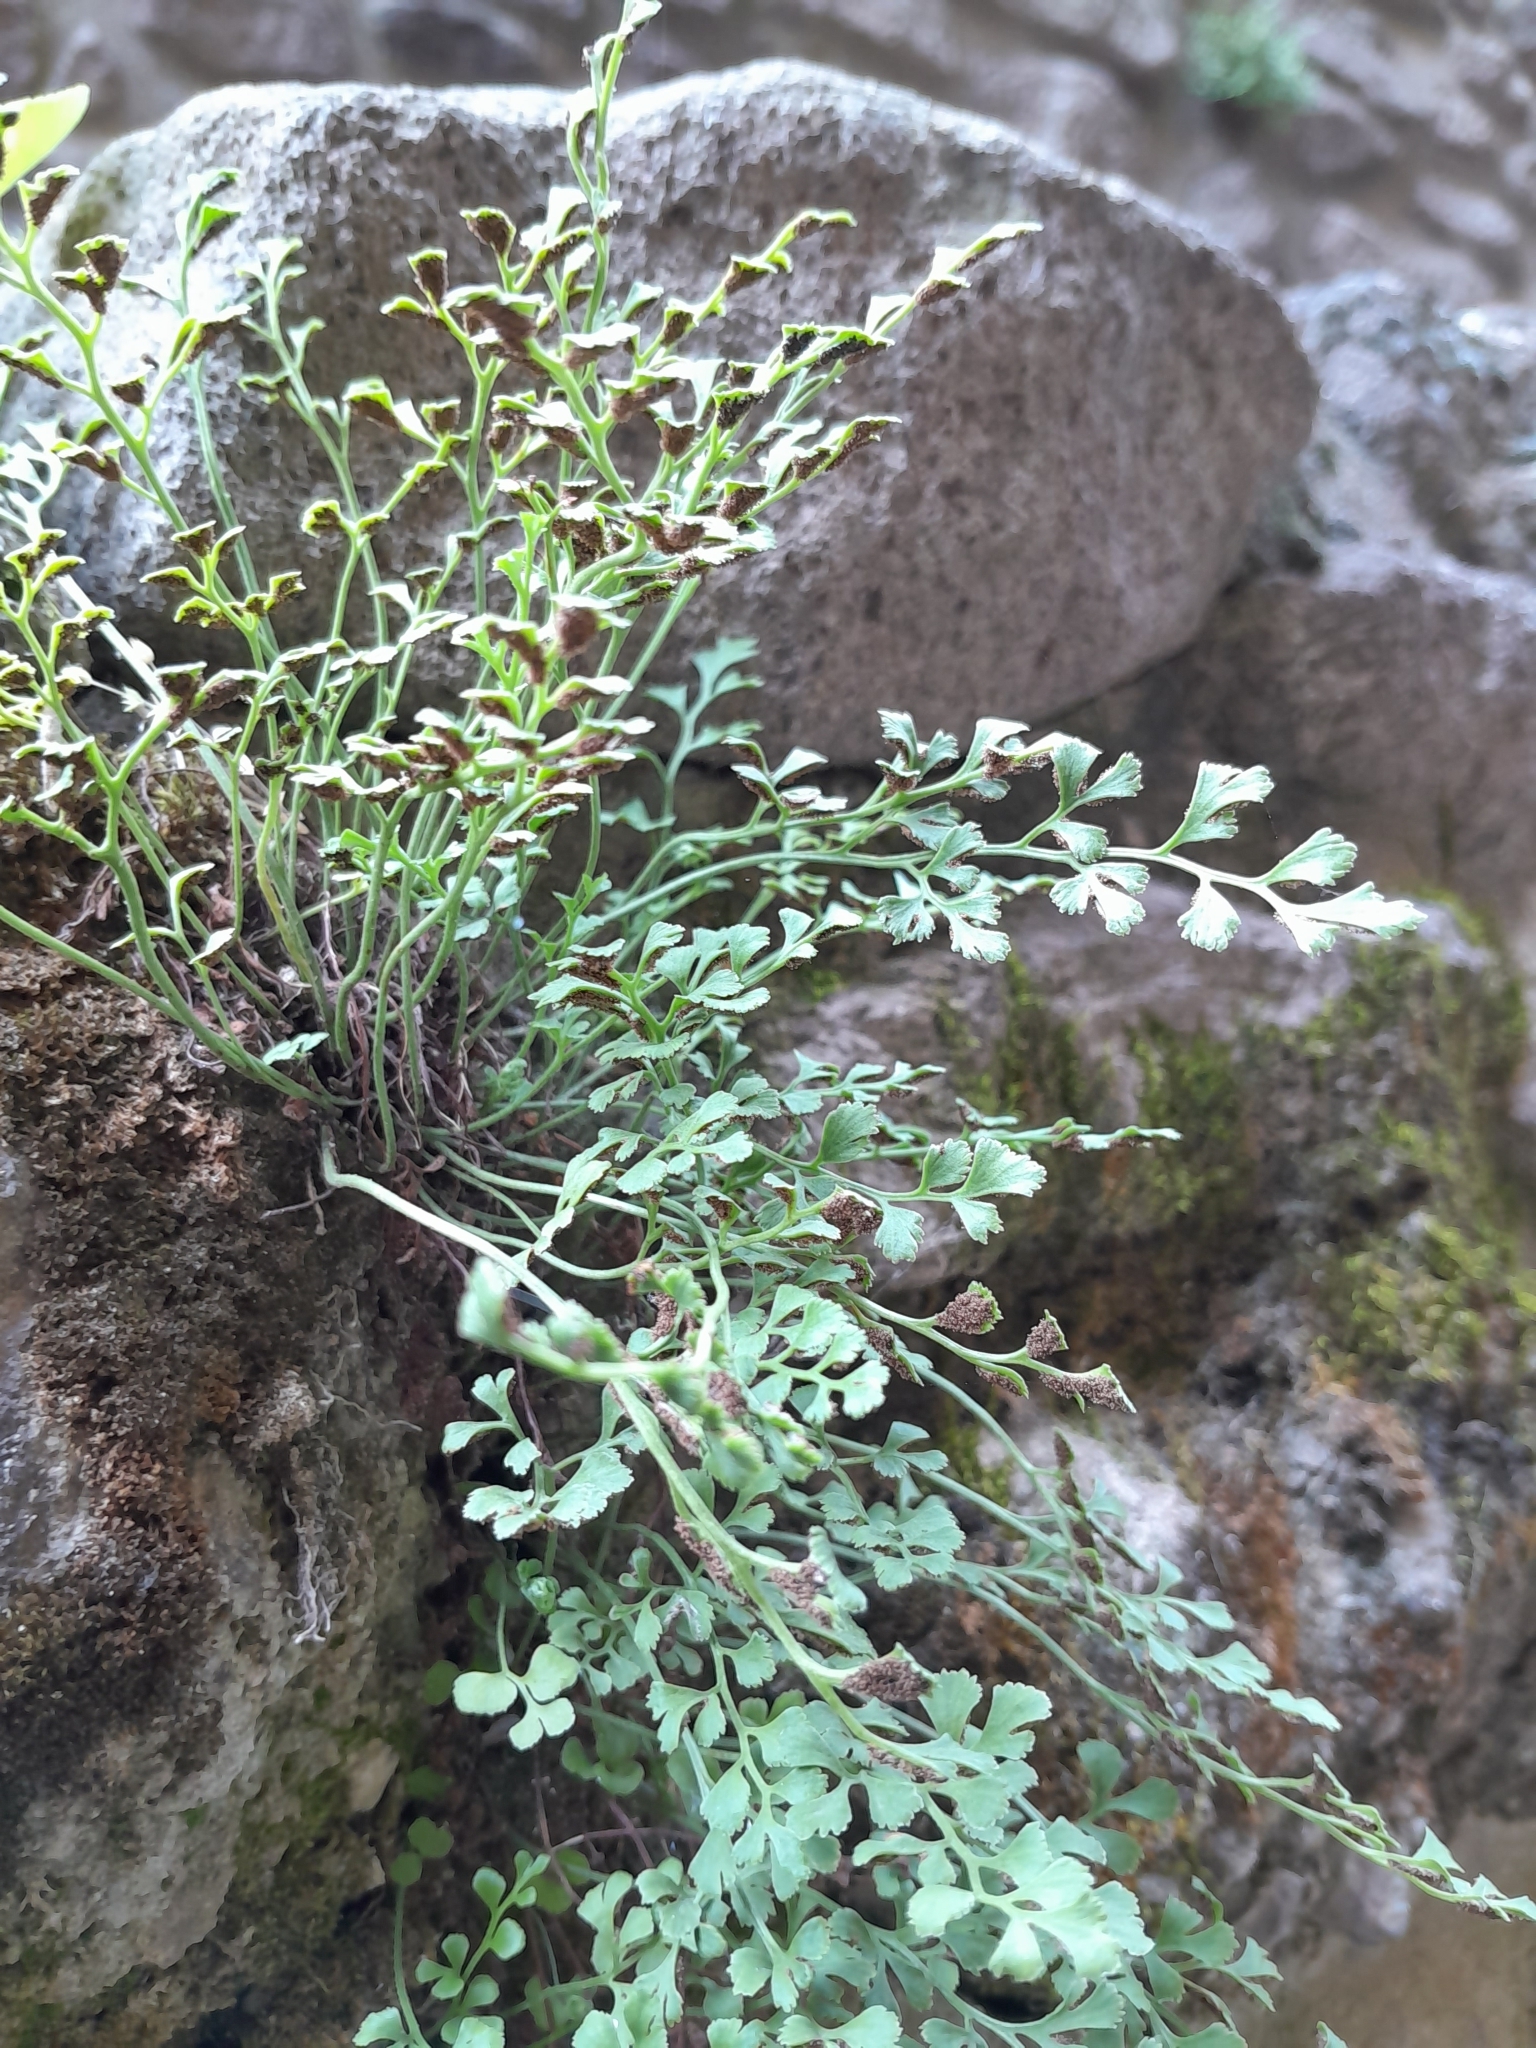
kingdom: Plantae
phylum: Tracheophyta
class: Polypodiopsida
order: Polypodiales
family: Aspleniaceae
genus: Asplenium
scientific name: Asplenium ruta-muraria
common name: Wall-rue
